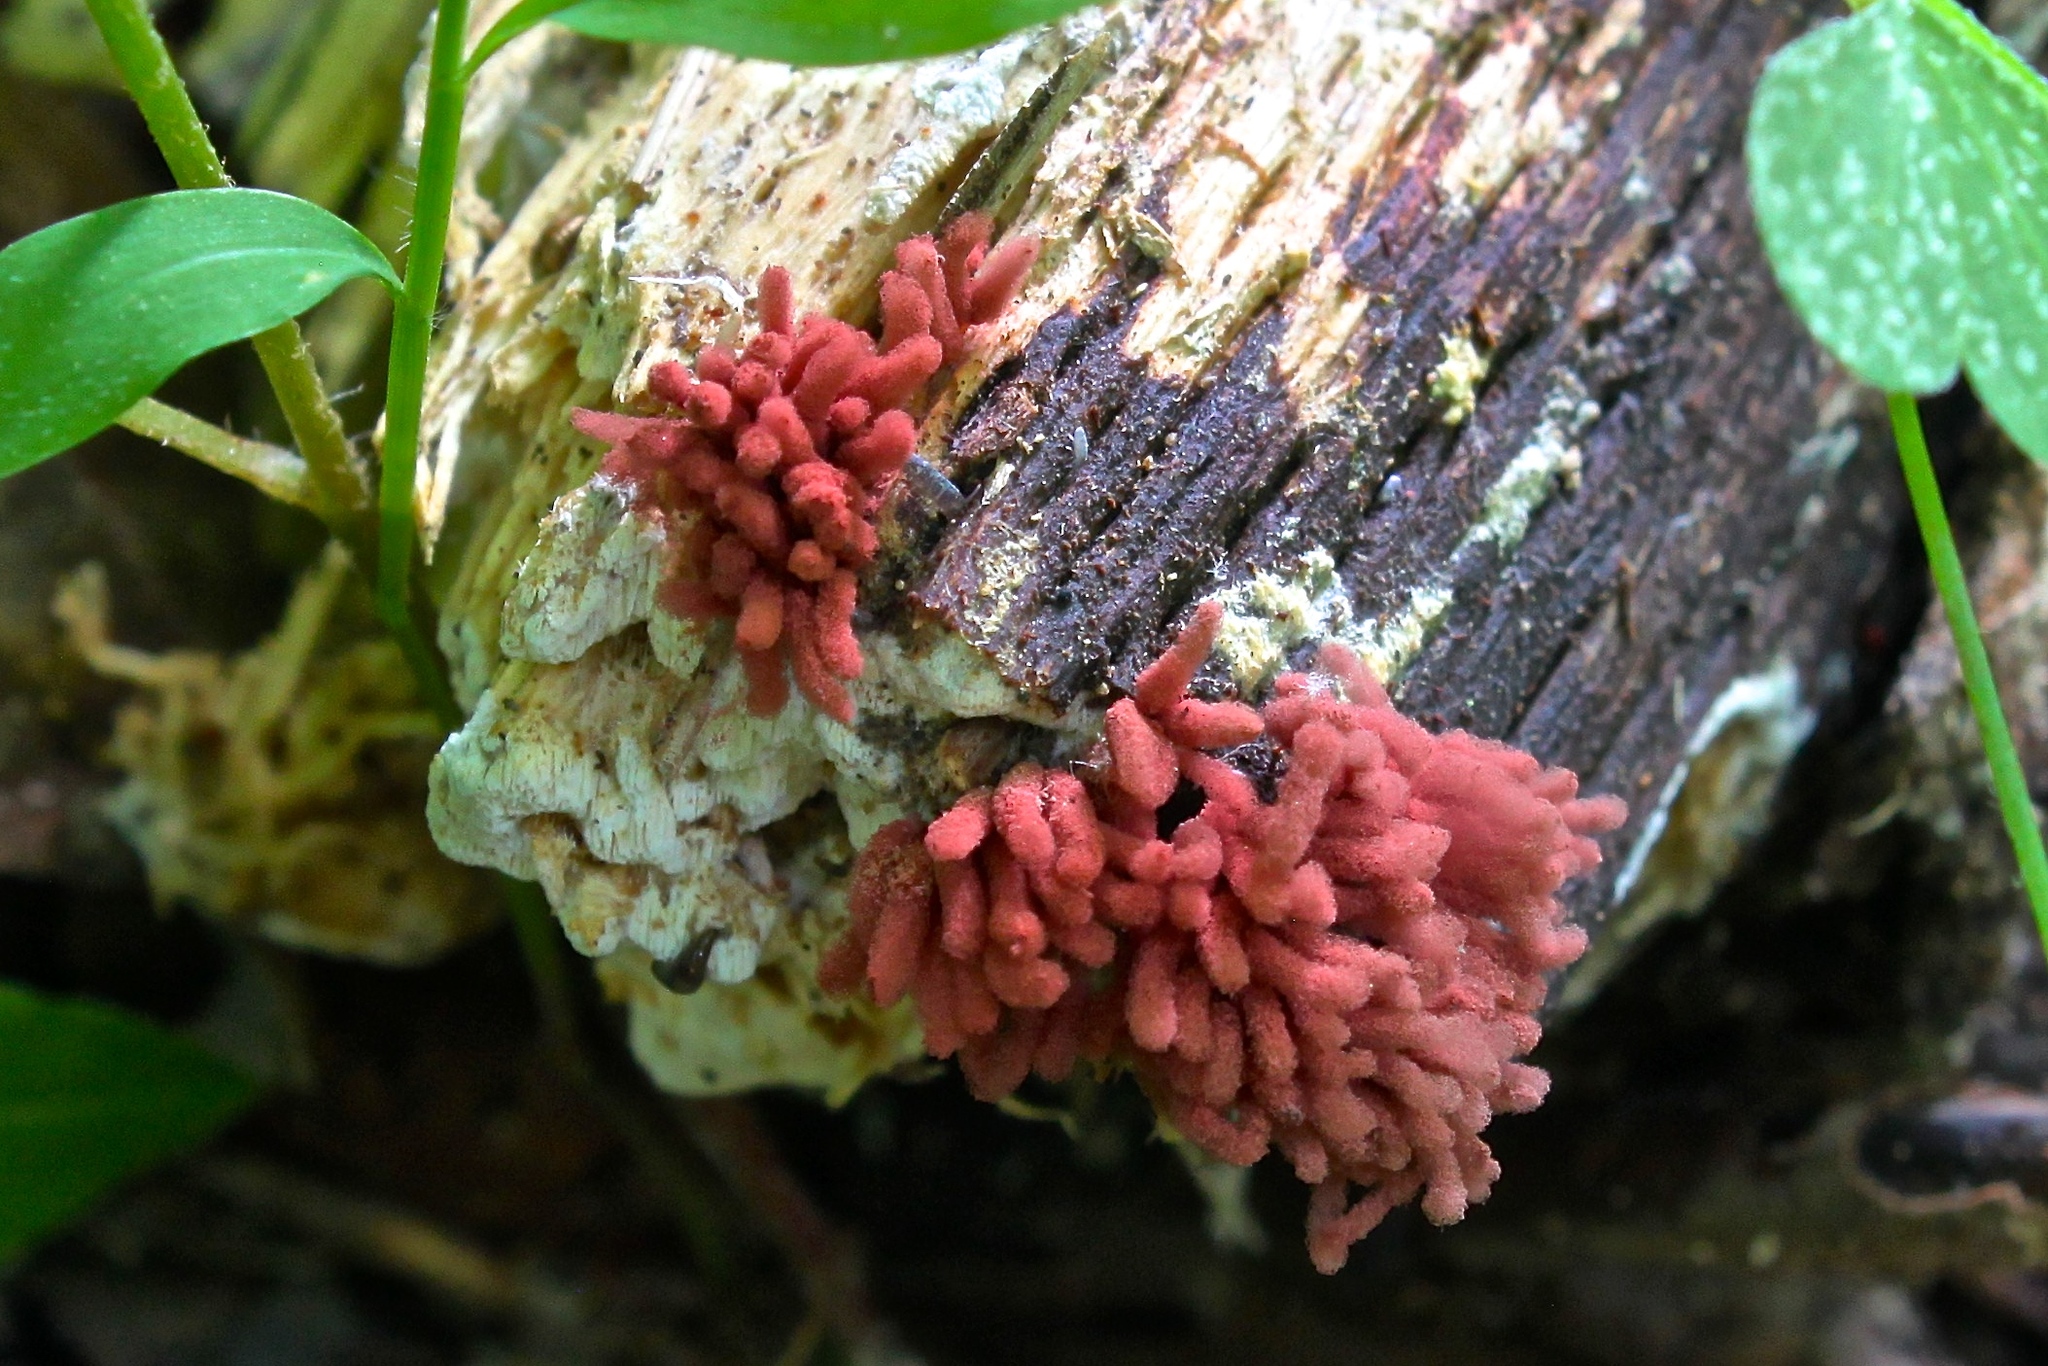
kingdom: Protozoa
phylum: Mycetozoa
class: Myxomycetes
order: Trichiales
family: Arcyriaceae
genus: Arcyria
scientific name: Arcyria denudata
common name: Carnival candy slime mold
